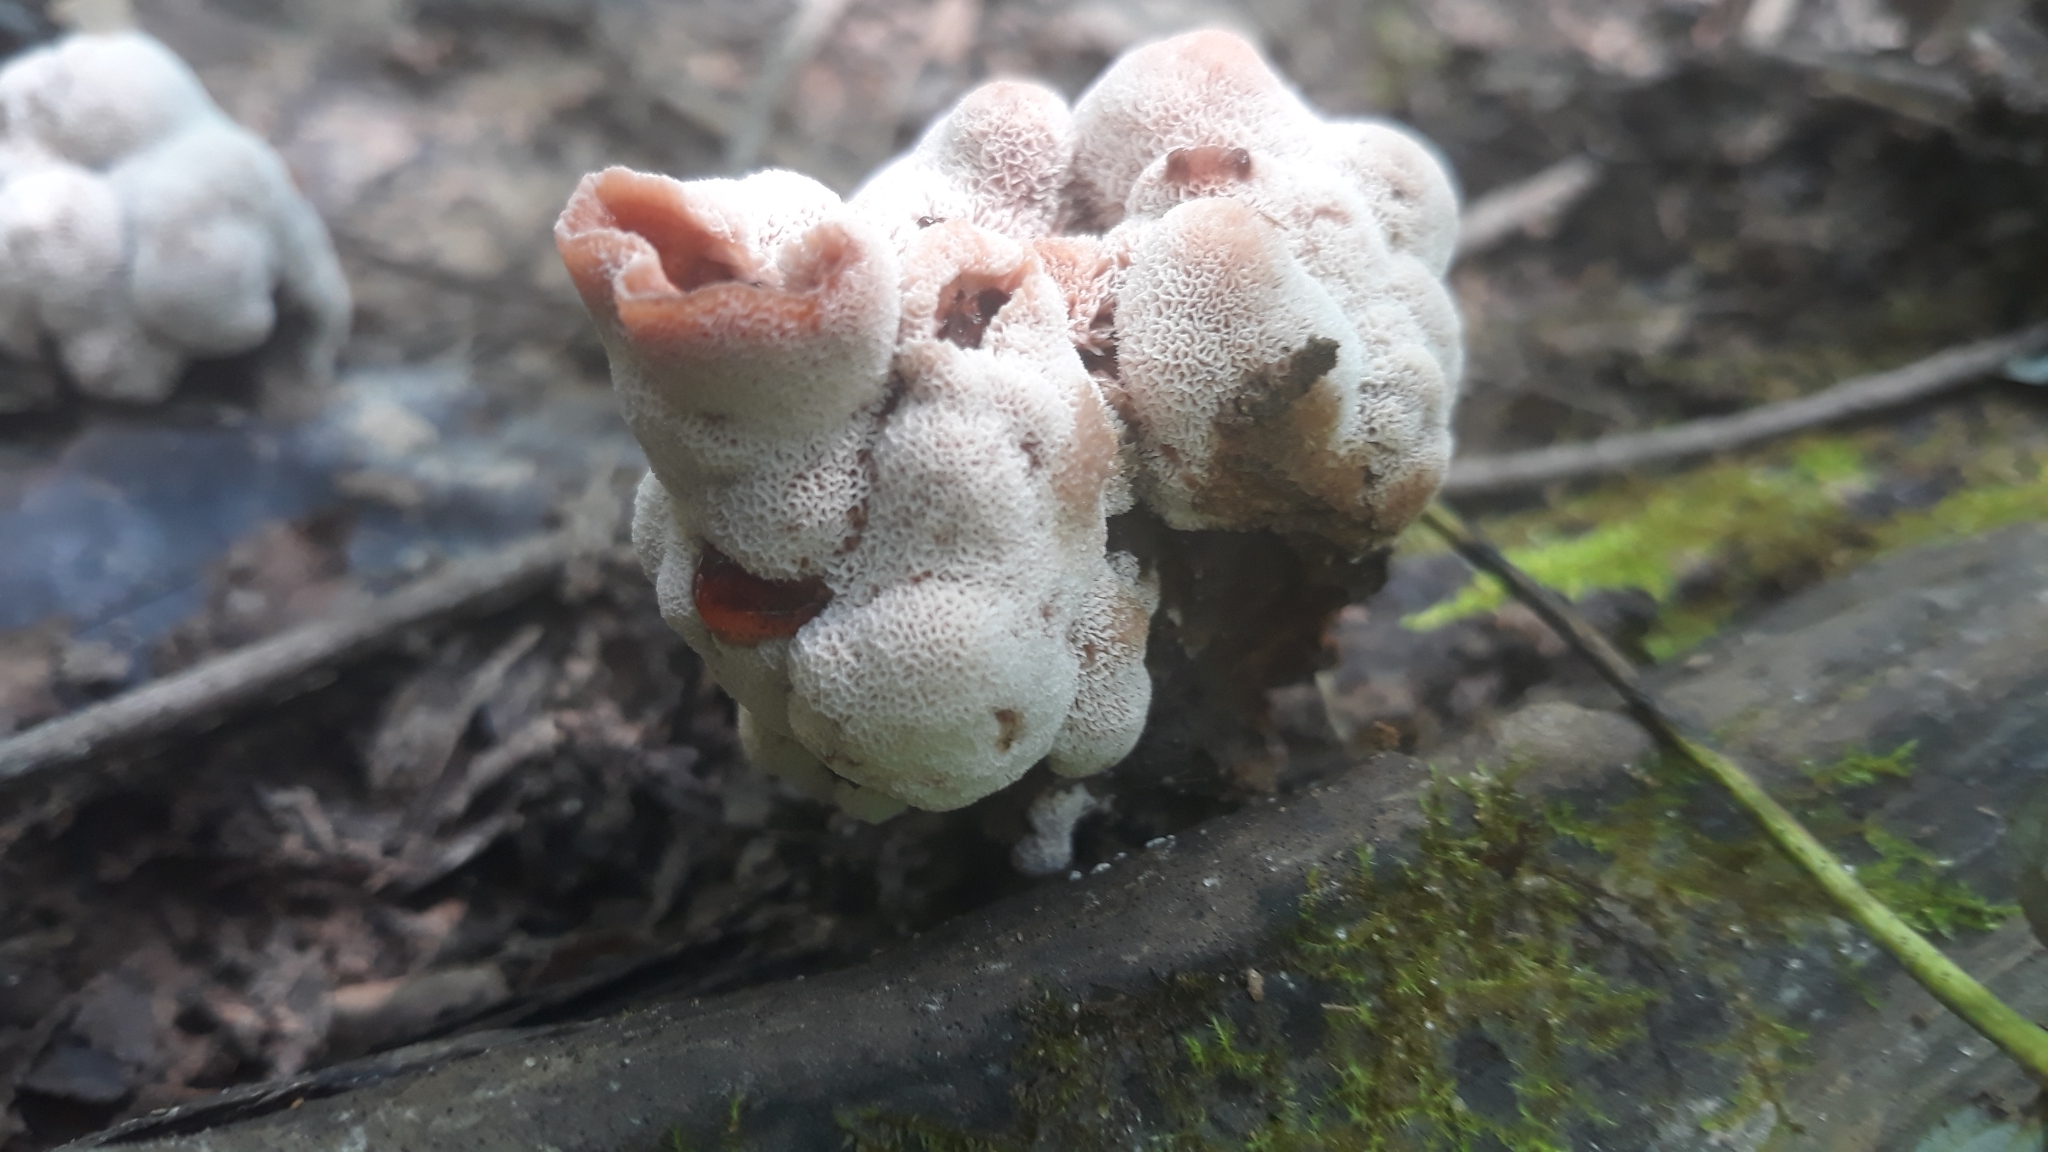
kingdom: Fungi
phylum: Basidiomycota
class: Agaricomycetes
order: Polyporales
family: Podoscyphaceae
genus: Abortiporus
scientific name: Abortiporus biennis
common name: Blushing rosette
